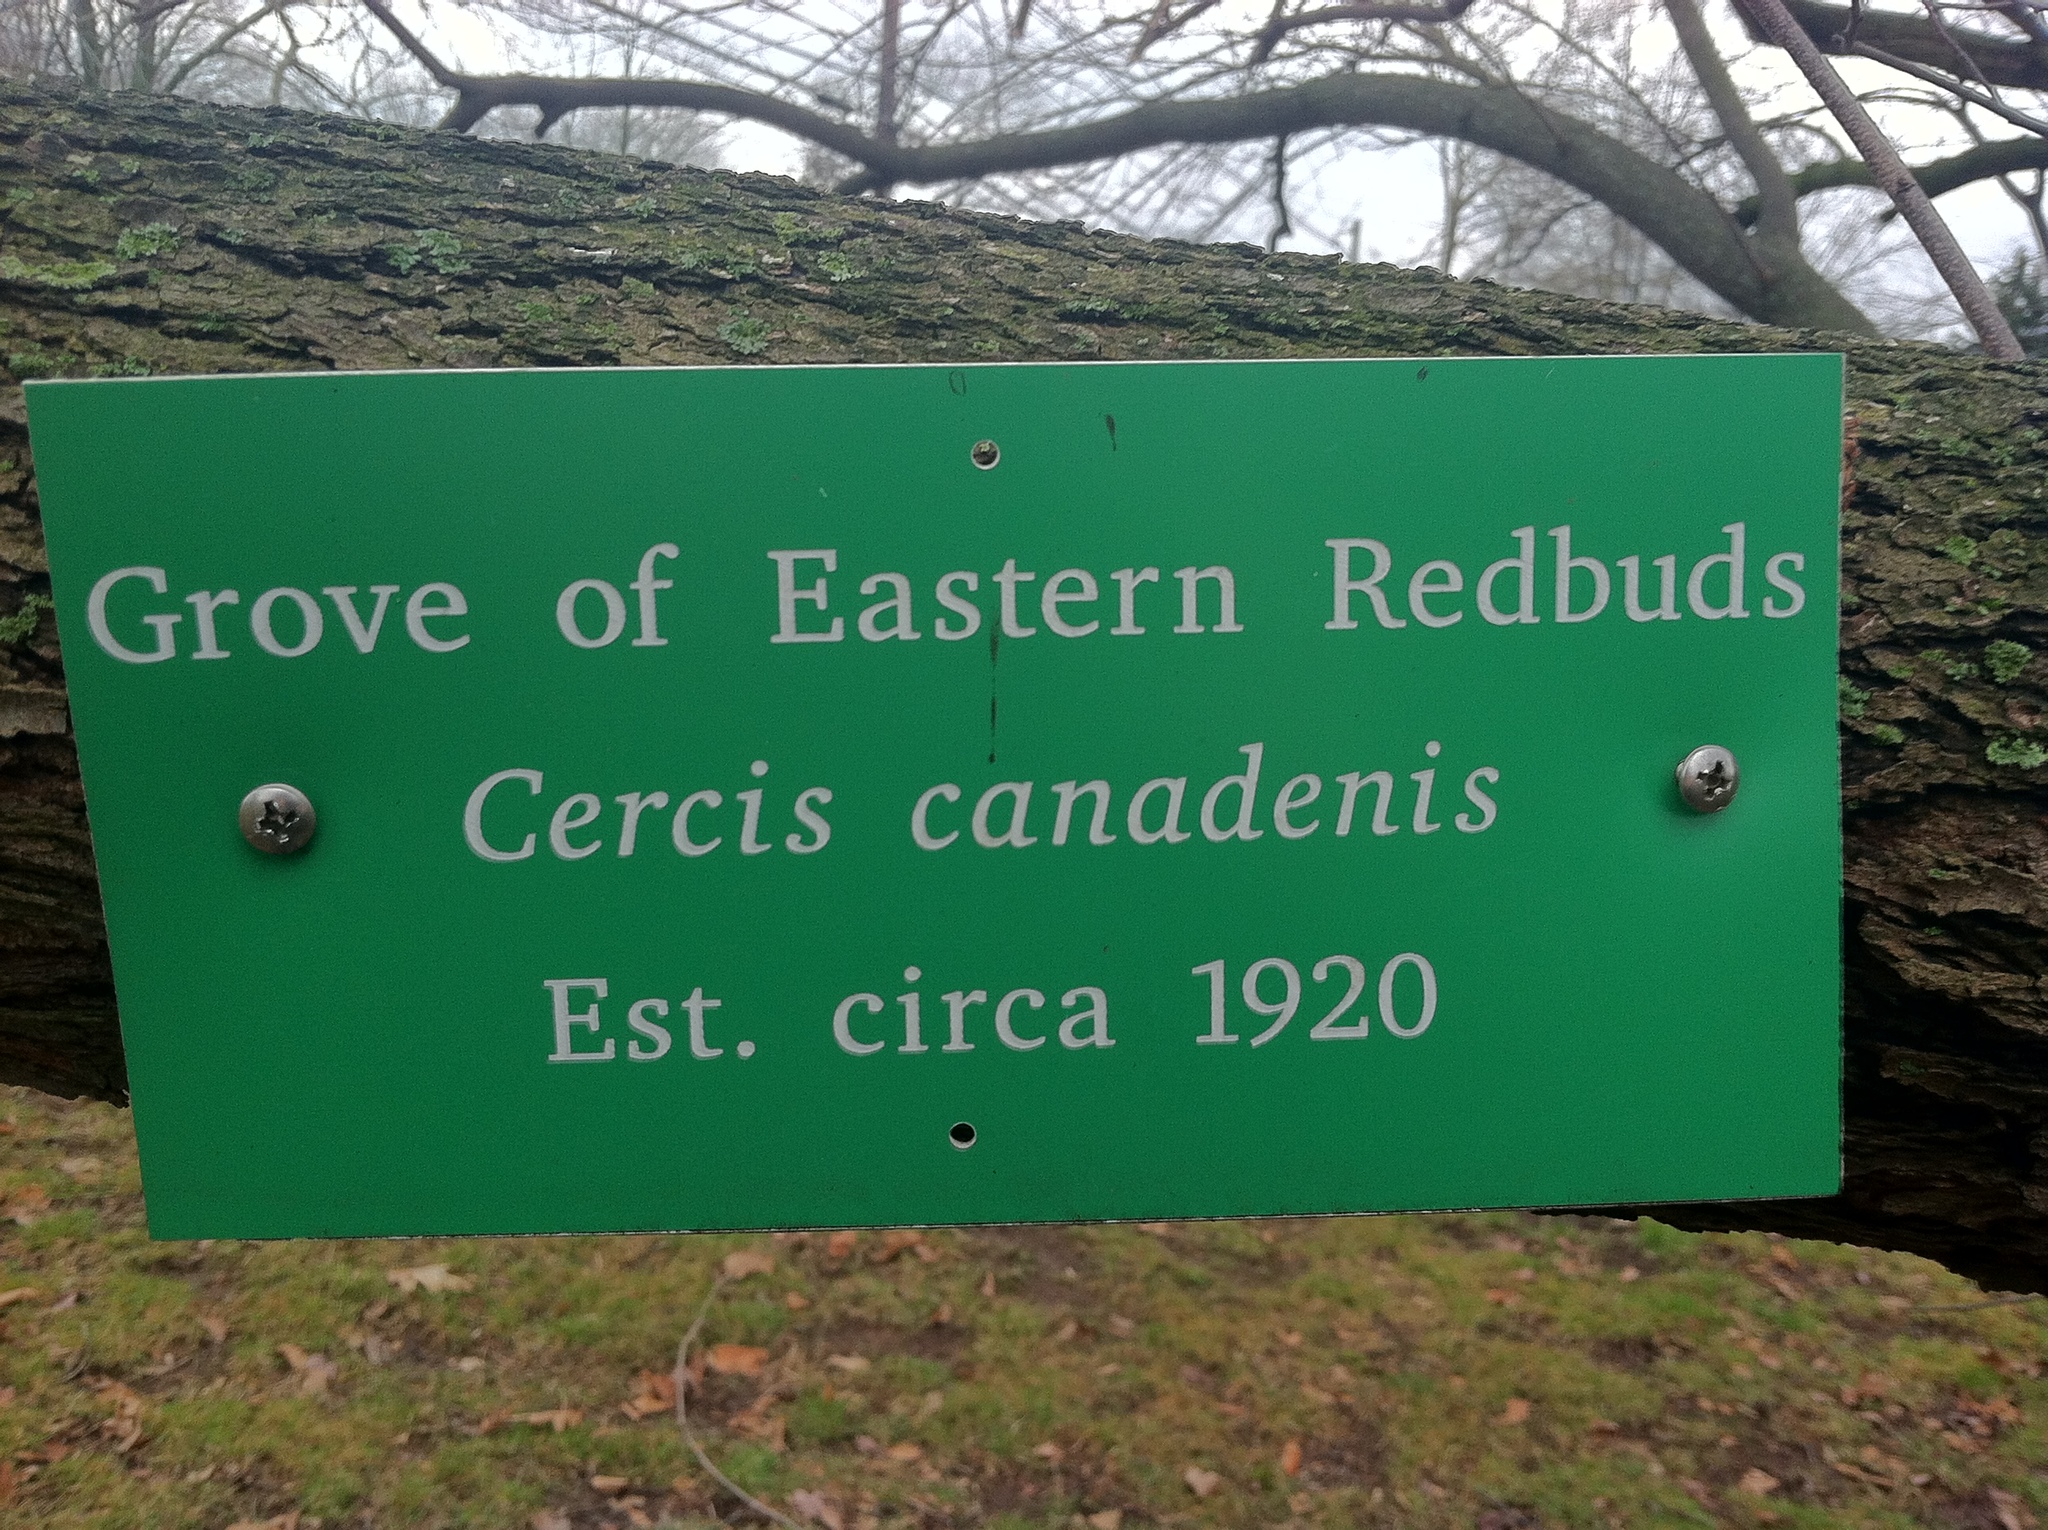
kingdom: Plantae
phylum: Tracheophyta
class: Magnoliopsida
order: Fabales
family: Fabaceae
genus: Cercis
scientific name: Cercis canadensis
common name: Eastern redbud
